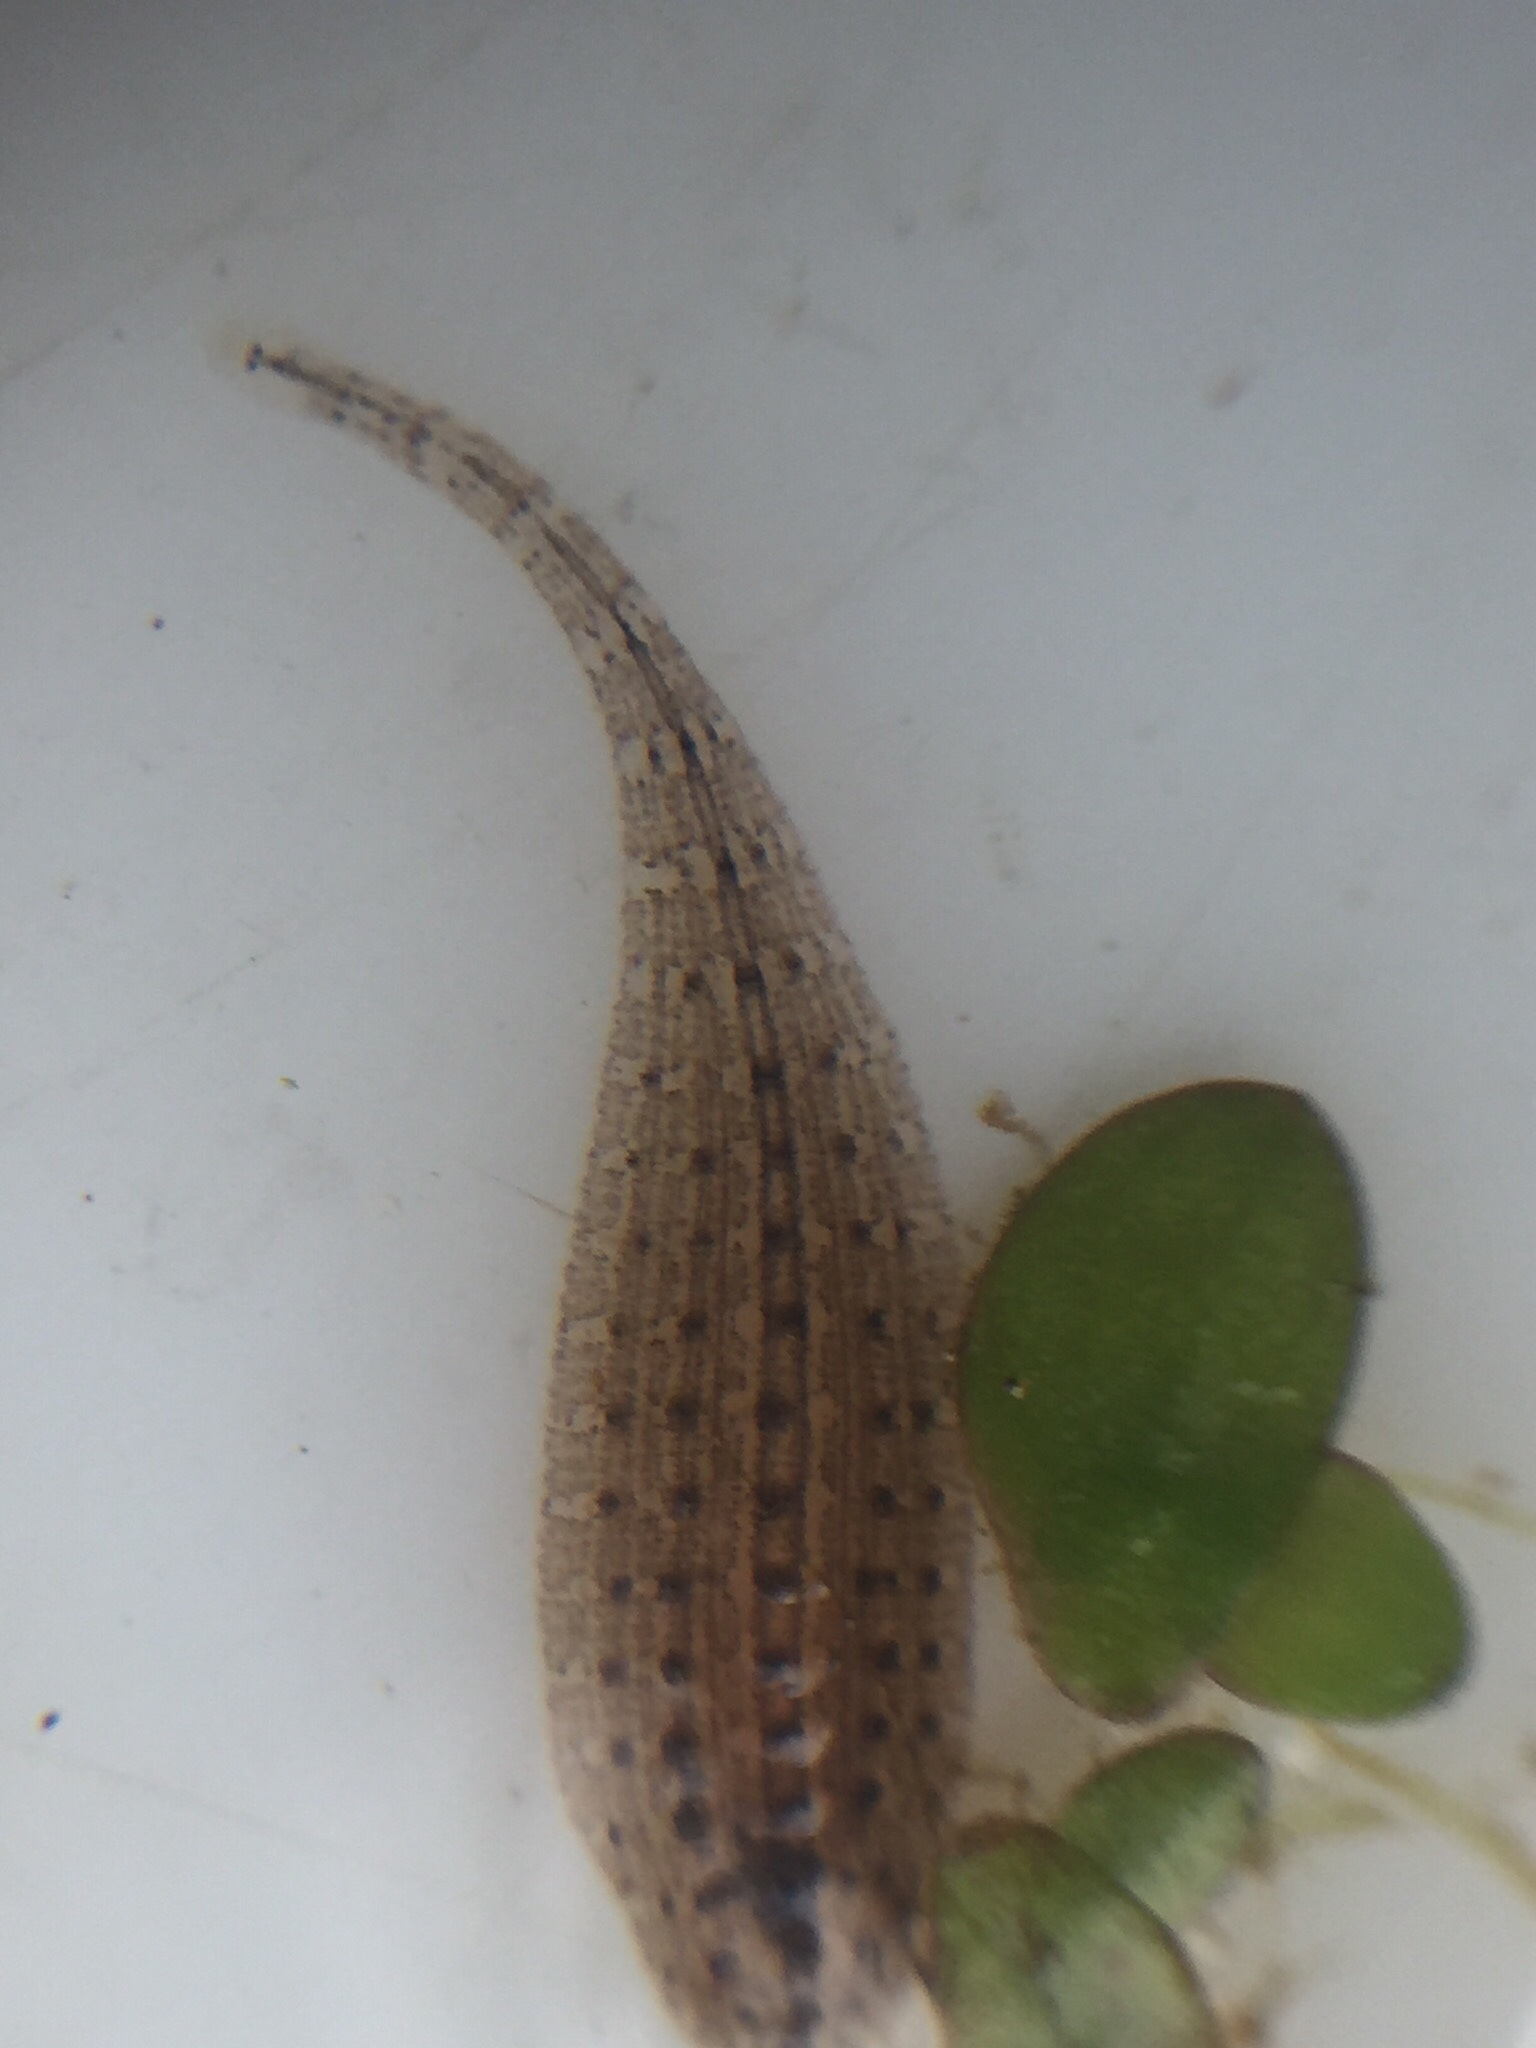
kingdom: Animalia
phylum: Annelida
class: Clitellata
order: Rhynchobdellida
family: Glossiphoniidae
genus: Helobdella
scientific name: Helobdella europaea
